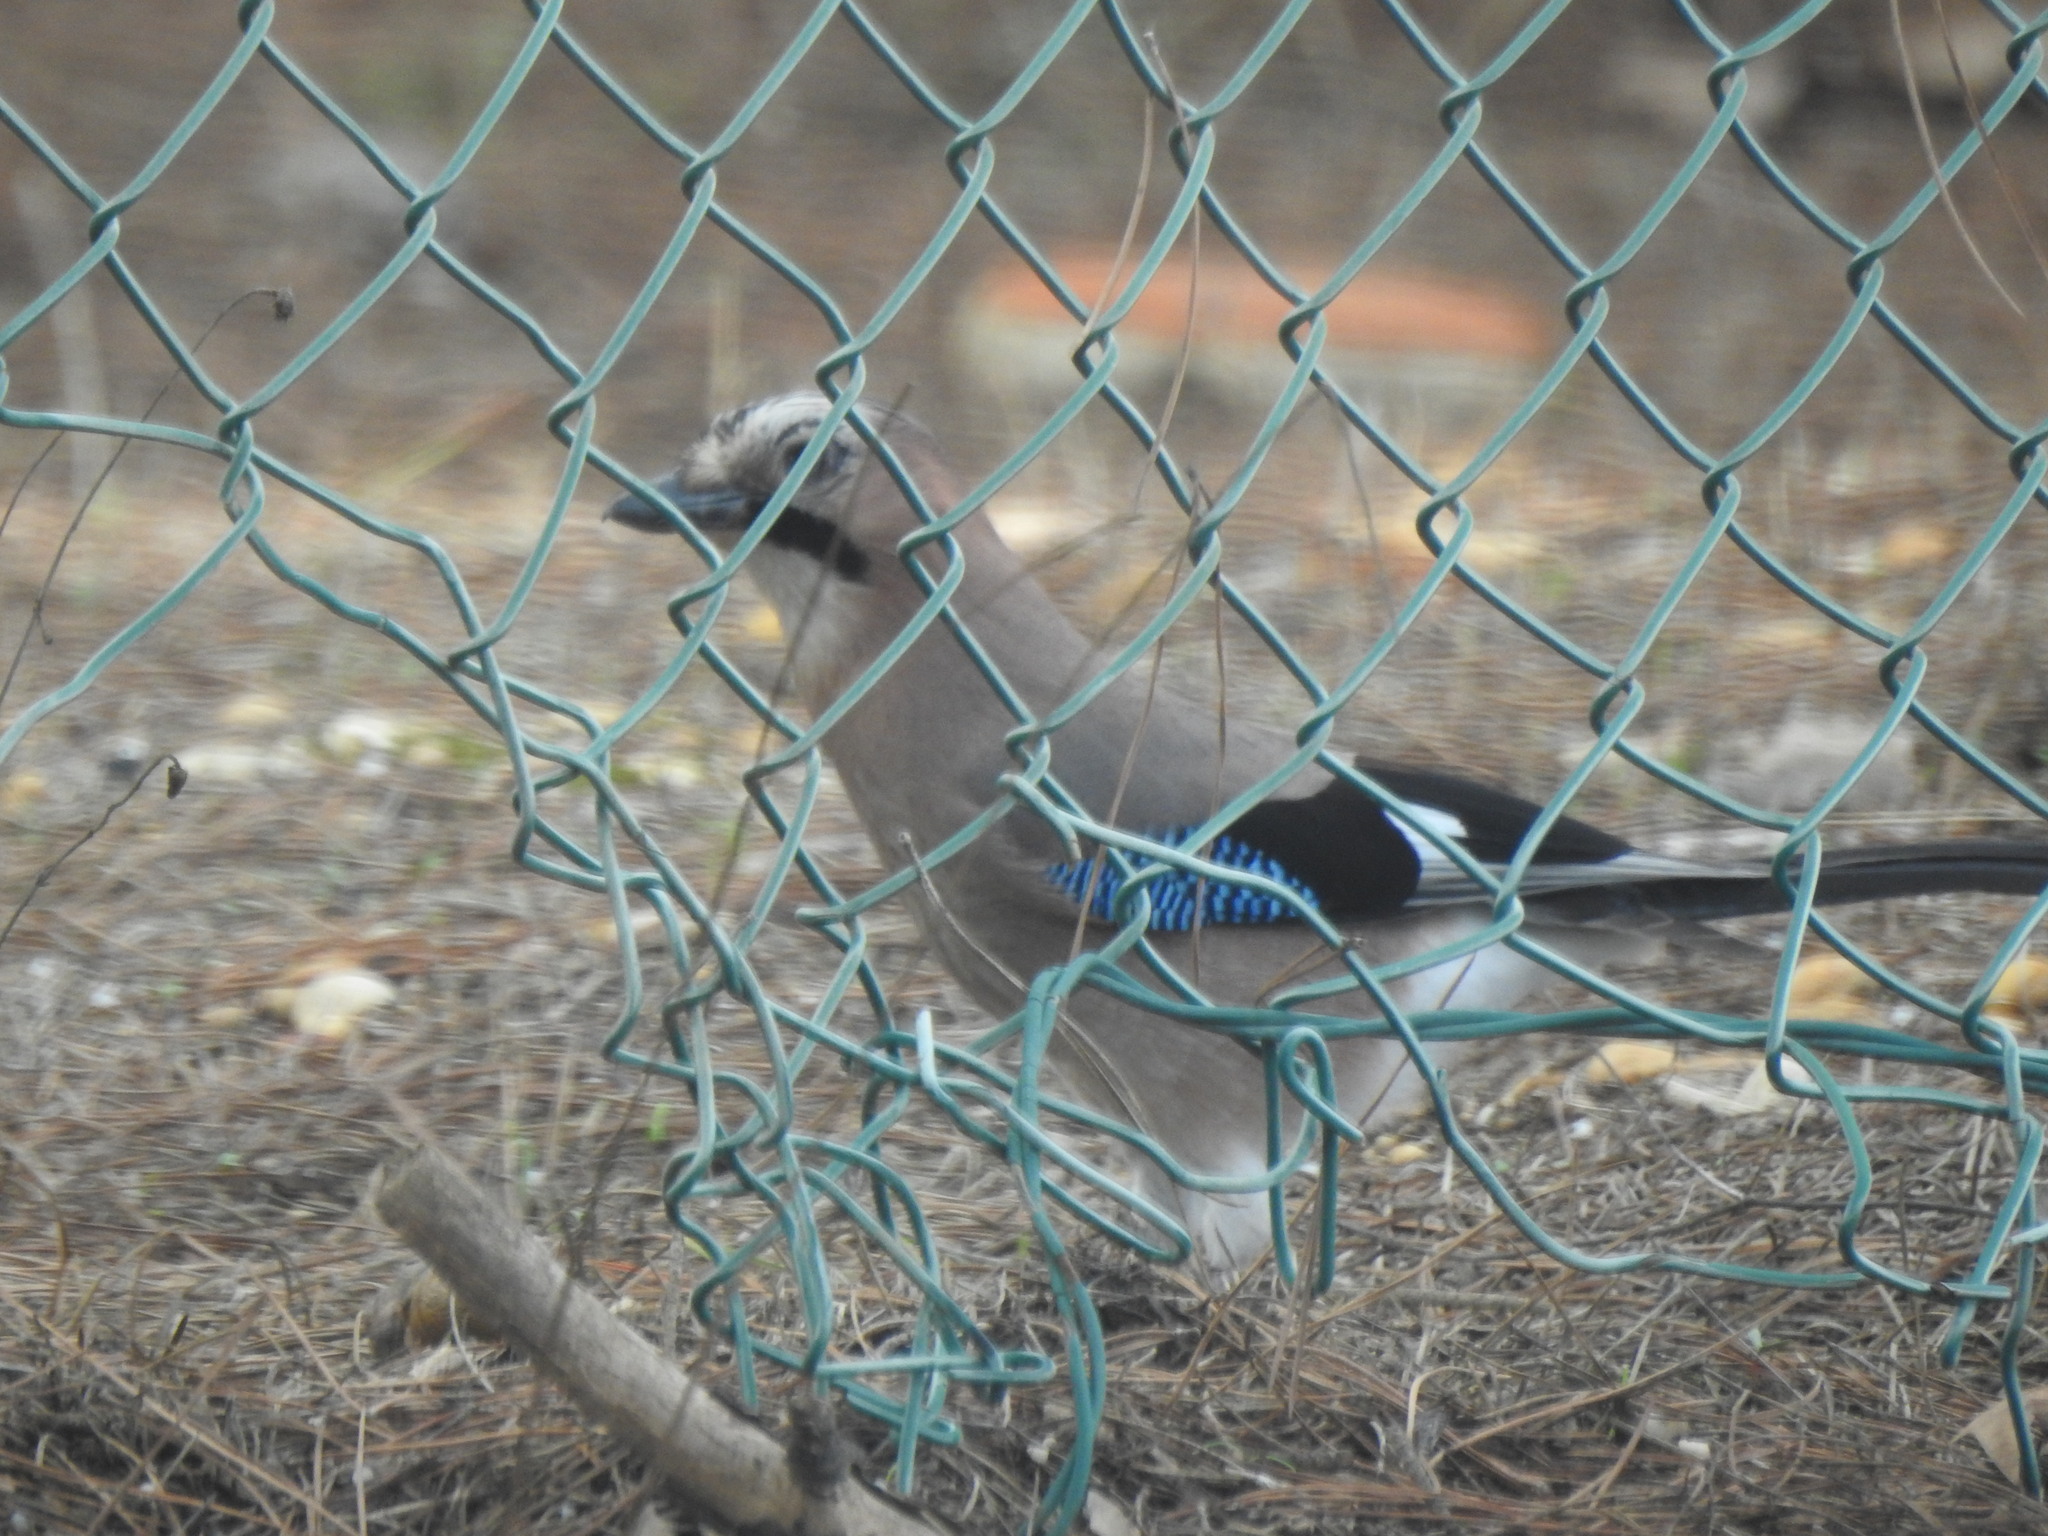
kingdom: Animalia
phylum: Chordata
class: Aves
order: Passeriformes
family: Corvidae
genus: Garrulus
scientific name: Garrulus glandarius
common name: Eurasian jay
